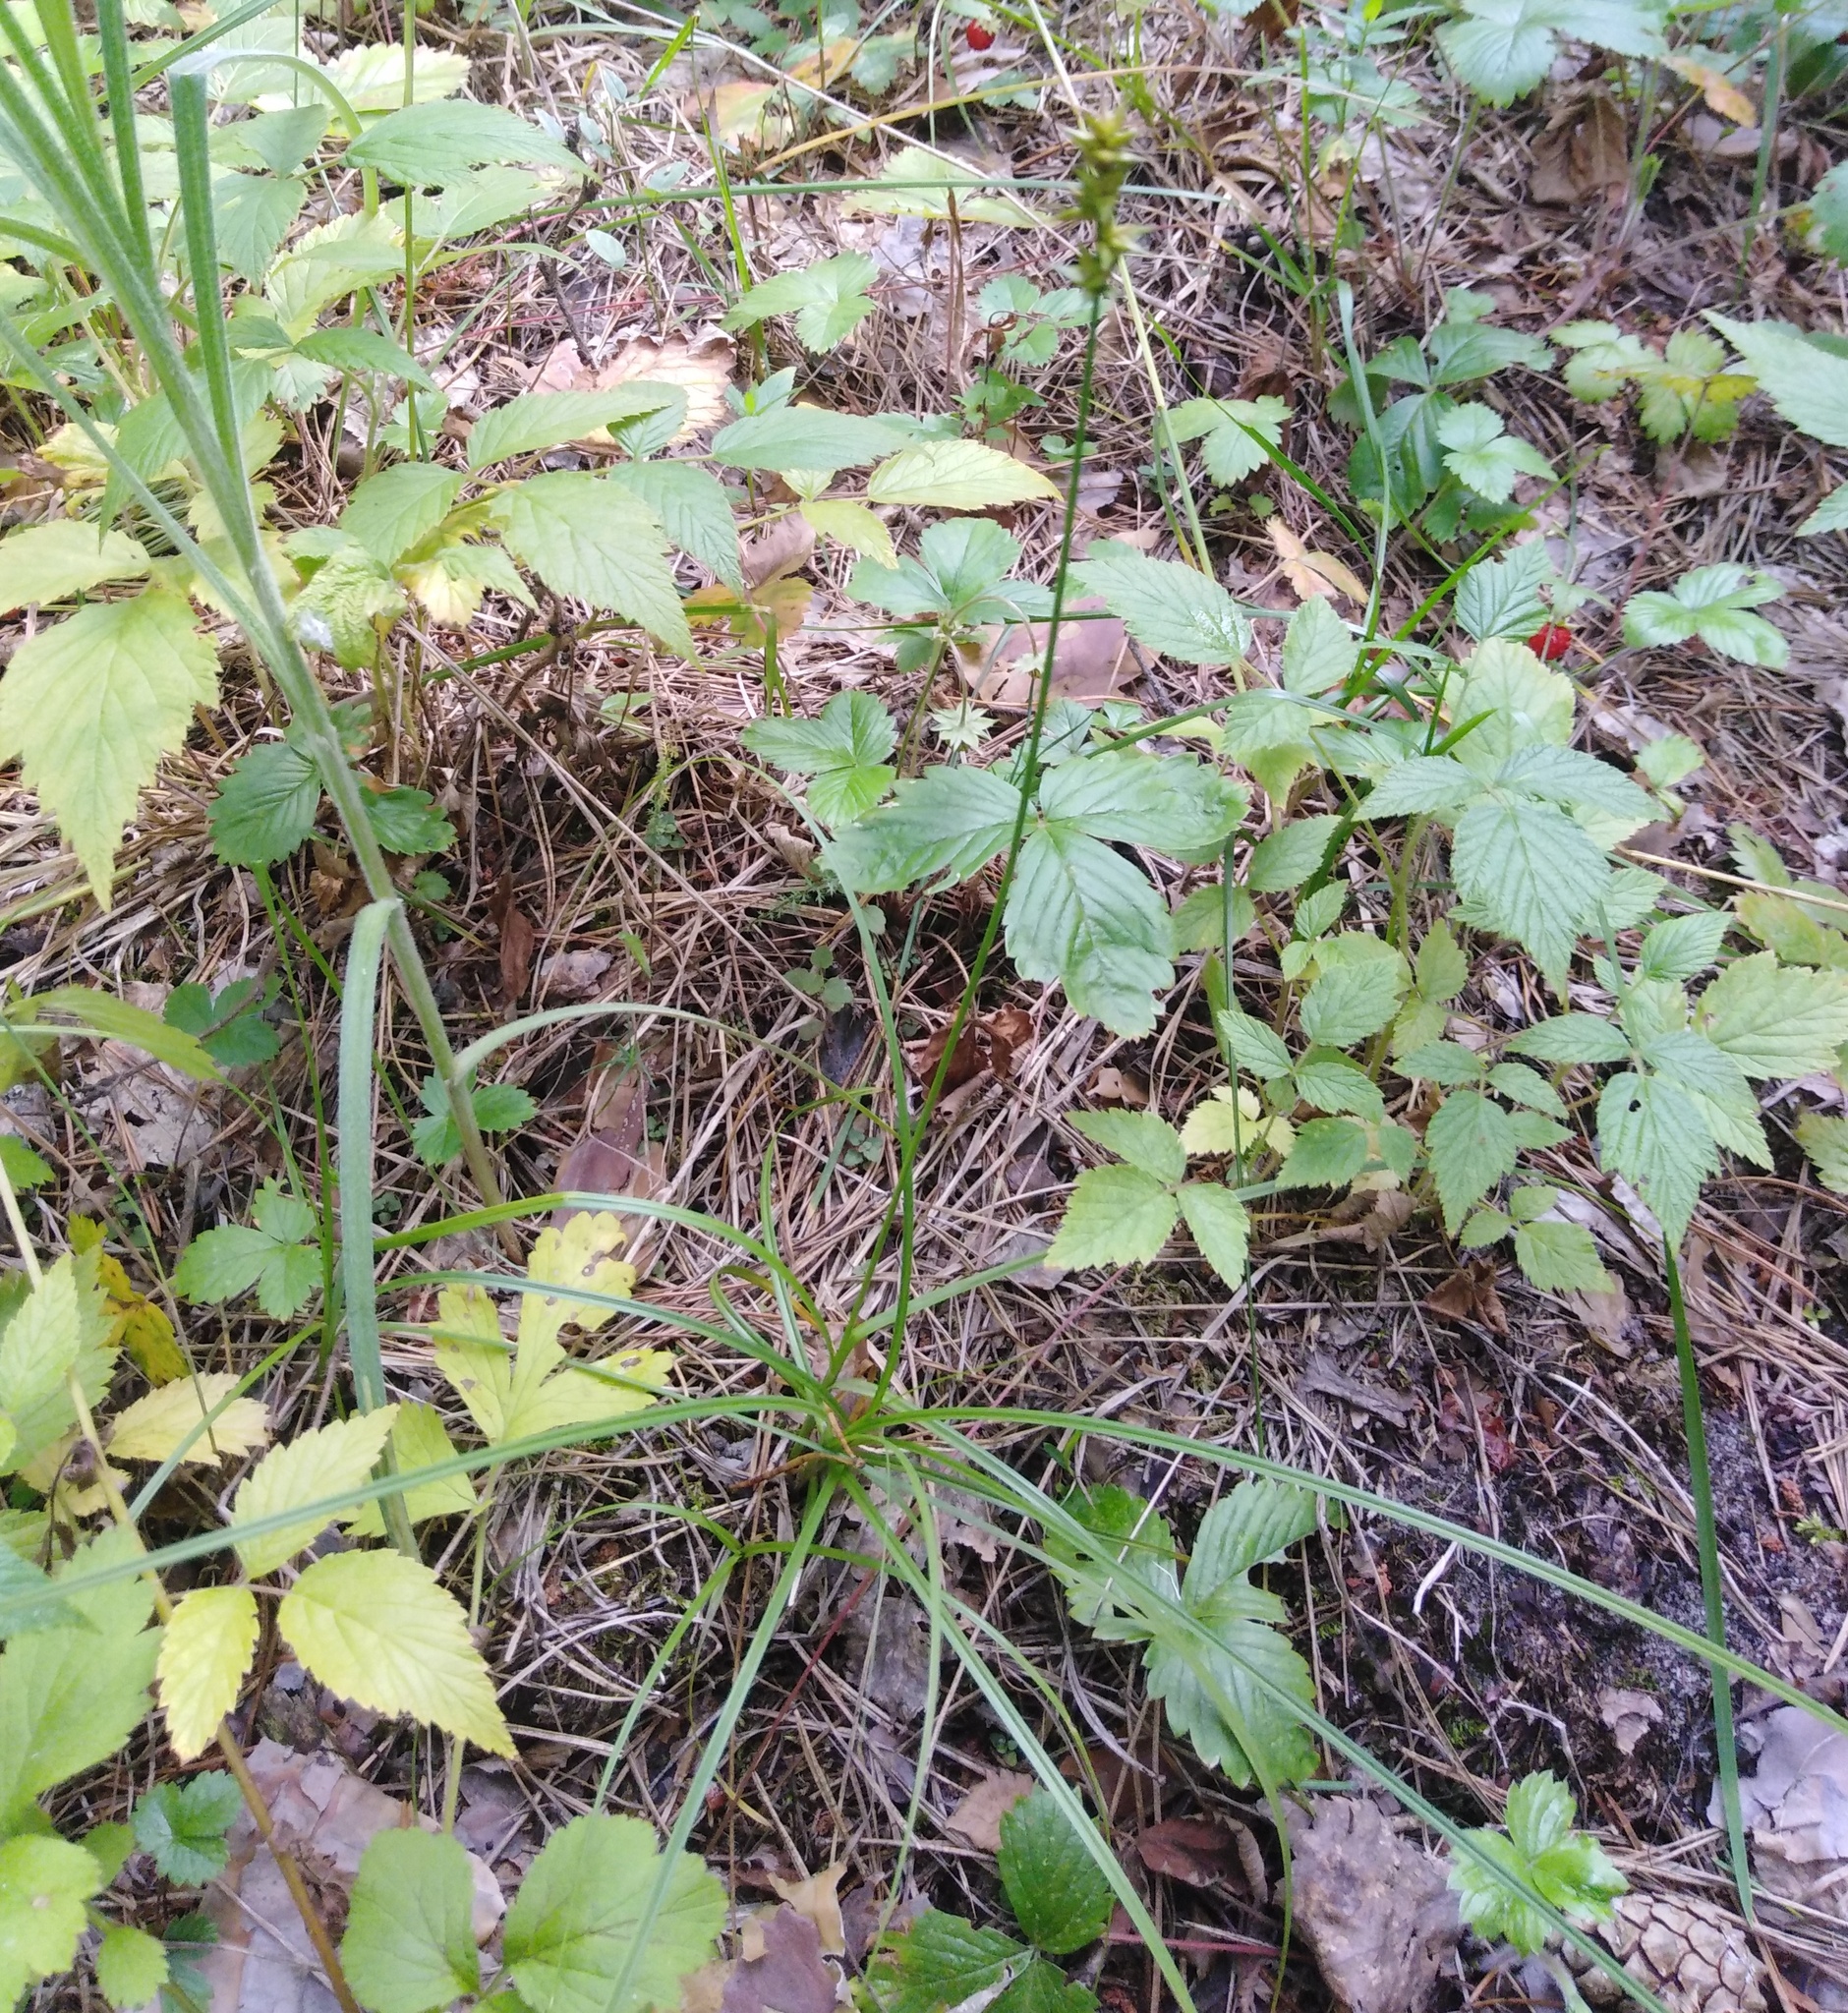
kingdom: Plantae
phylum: Tracheophyta
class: Liliopsida
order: Poales
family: Cyperaceae
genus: Carex
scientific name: Carex spicata
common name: Spiked sedge
